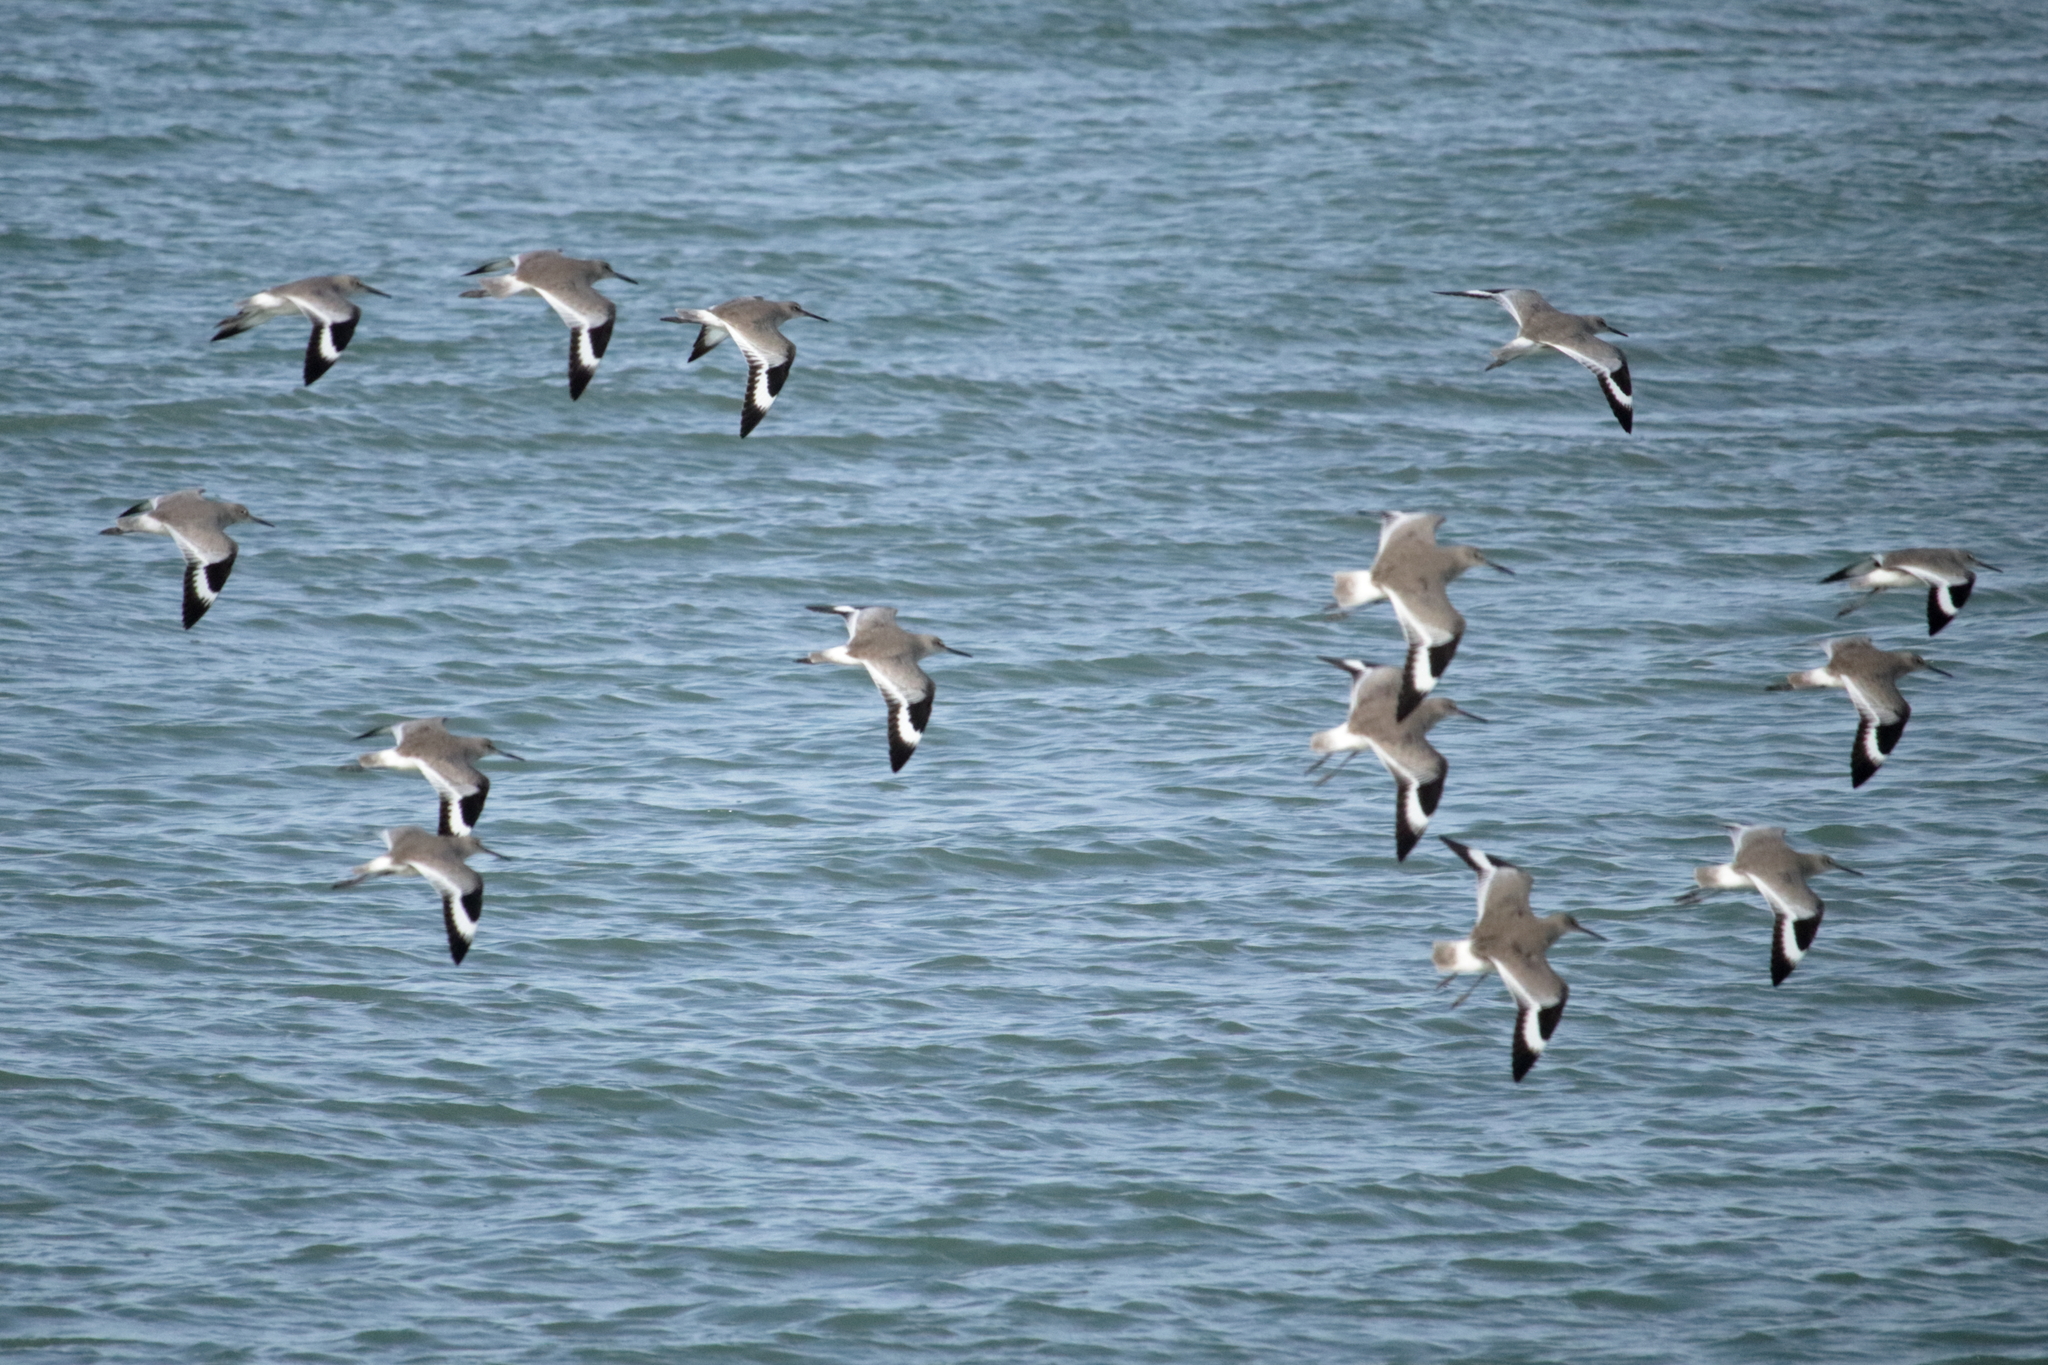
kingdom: Animalia
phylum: Chordata
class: Aves
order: Charadriiformes
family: Scolopacidae
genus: Tringa
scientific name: Tringa semipalmata
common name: Willet
